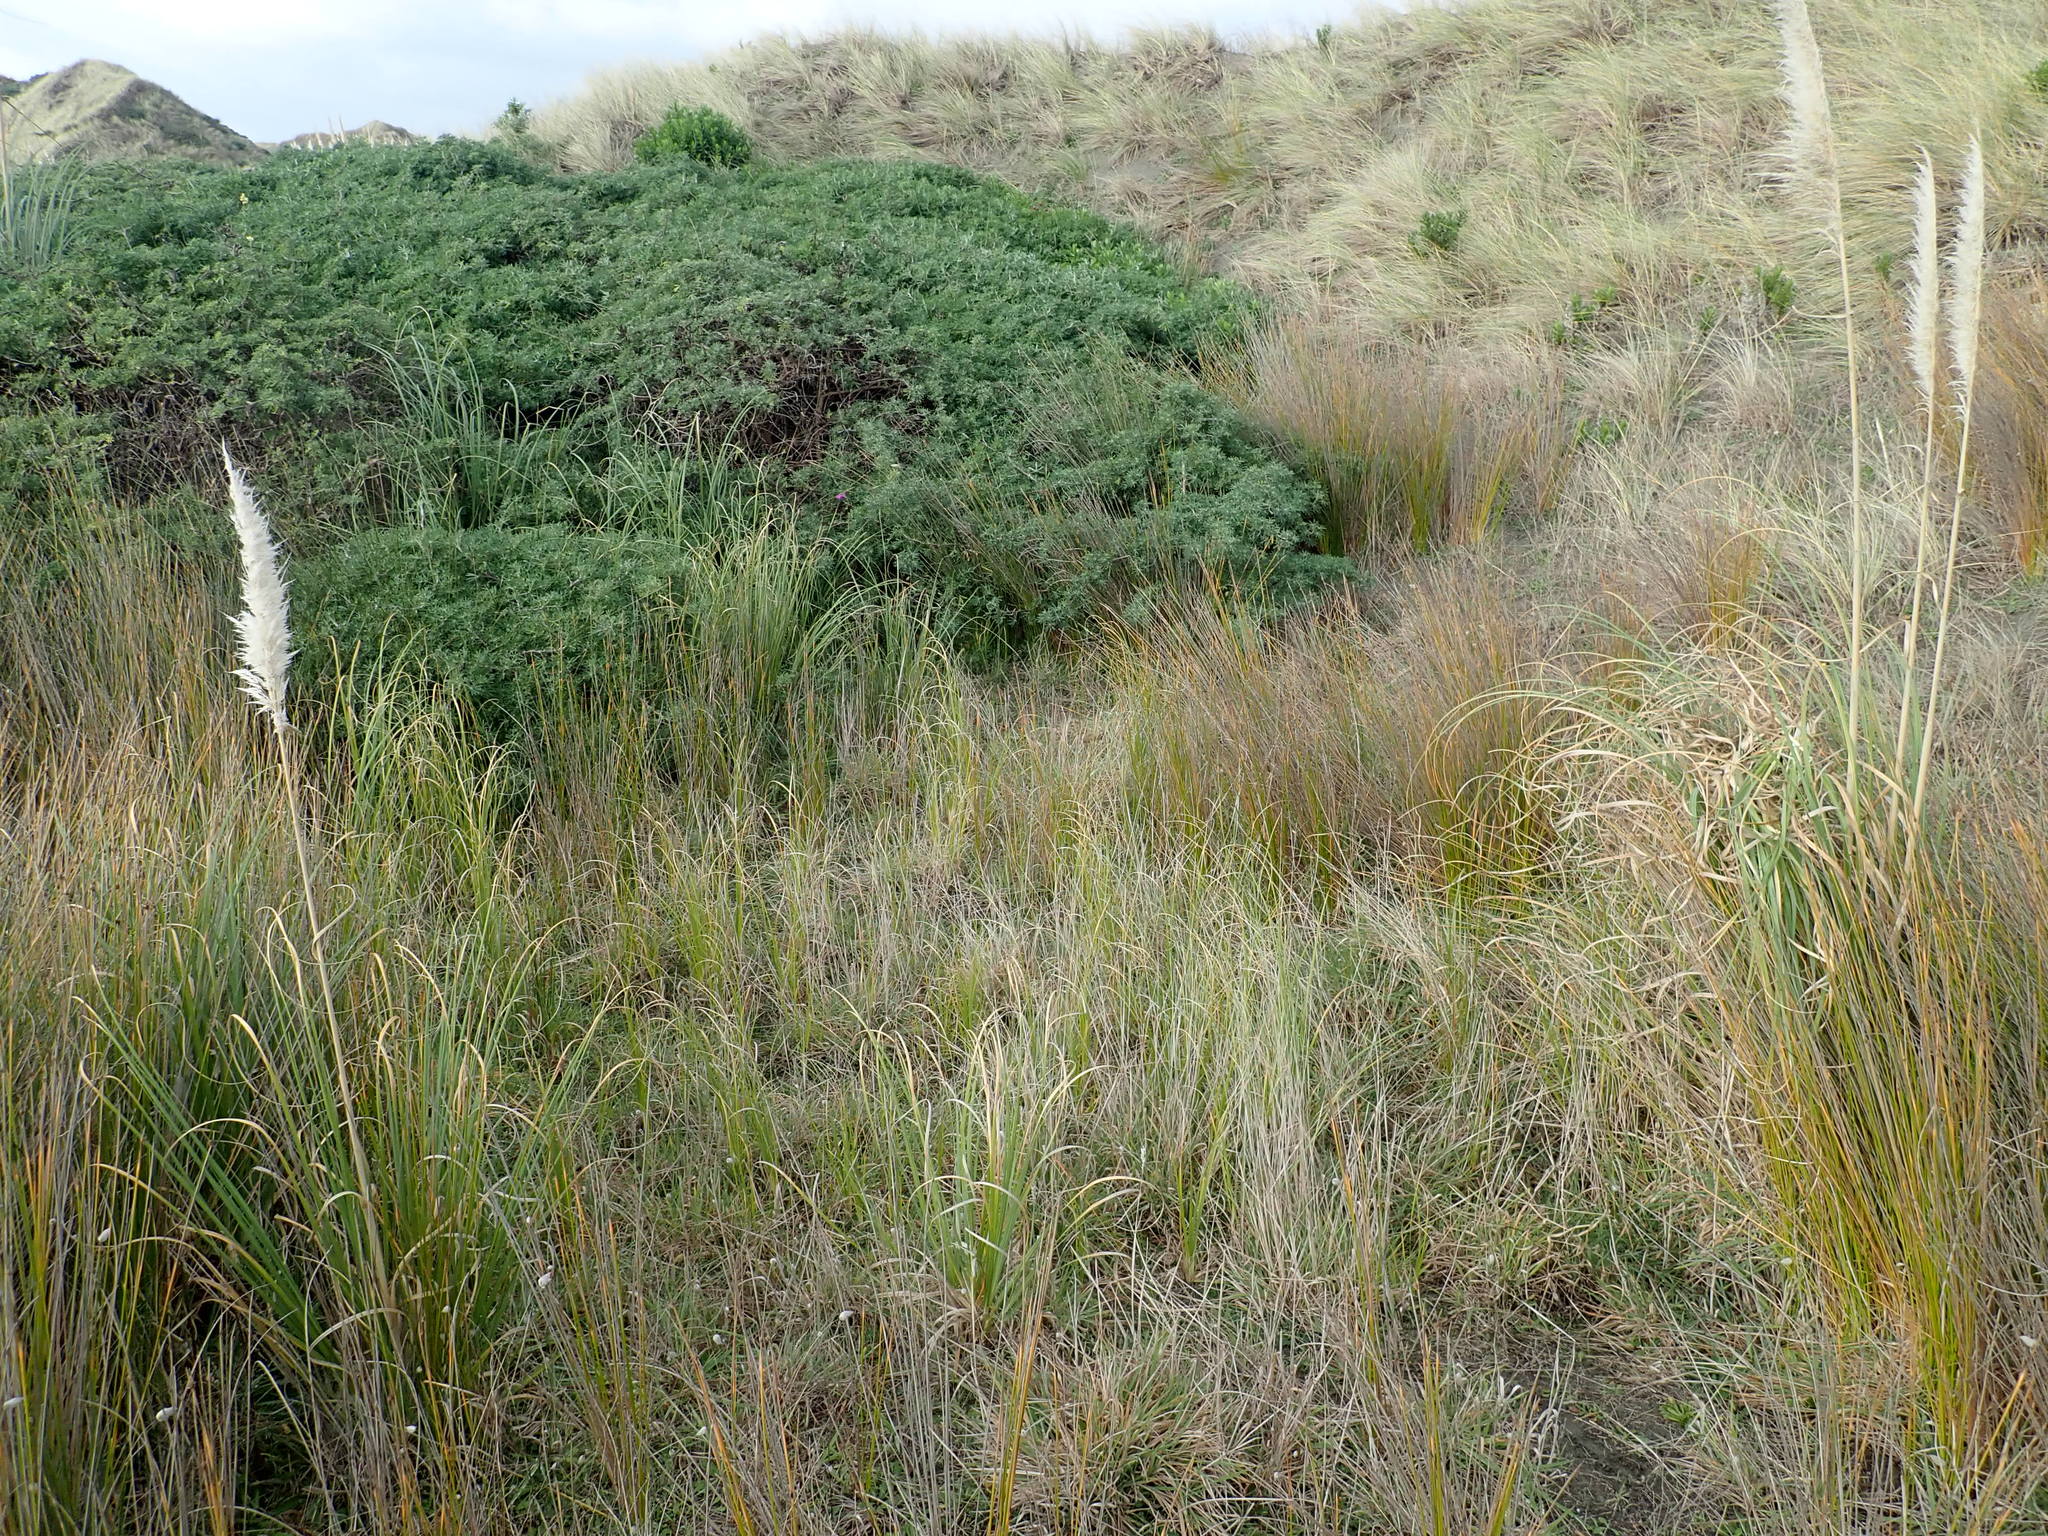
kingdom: Plantae
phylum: Tracheophyta
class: Liliopsida
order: Poales
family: Poaceae
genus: Cortaderia
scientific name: Cortaderia selloana
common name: Uruguayan pampas grass
